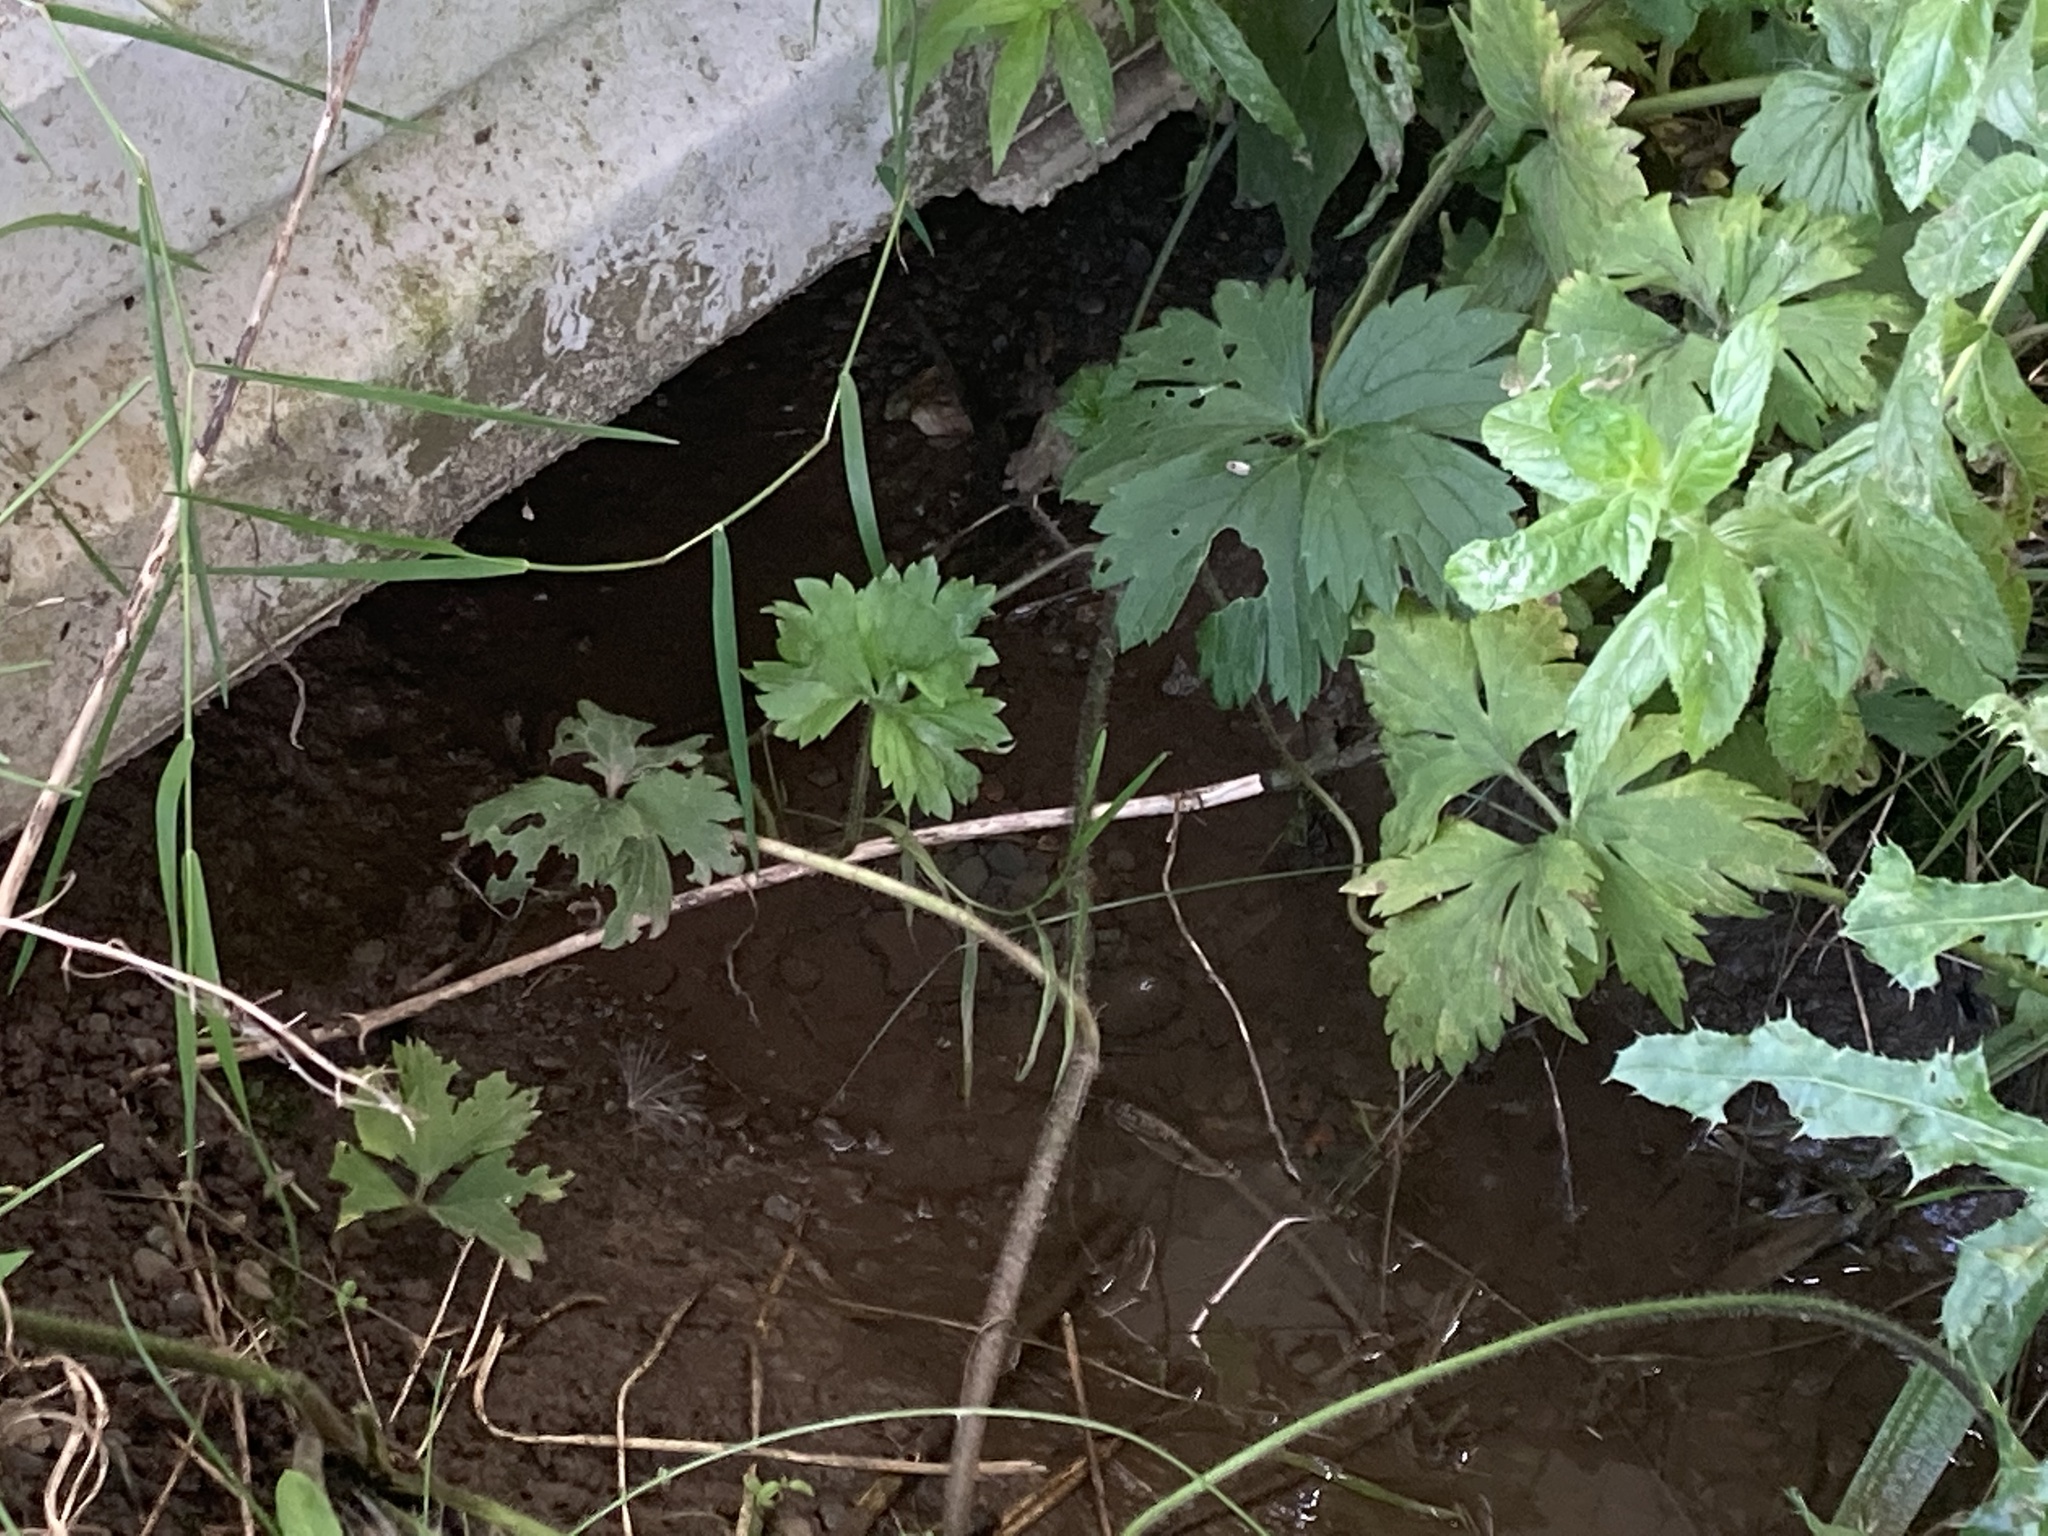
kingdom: Plantae
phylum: Tracheophyta
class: Magnoliopsida
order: Ranunculales
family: Ranunculaceae
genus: Ranunculus
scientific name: Ranunculus repens
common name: Creeping buttercup
